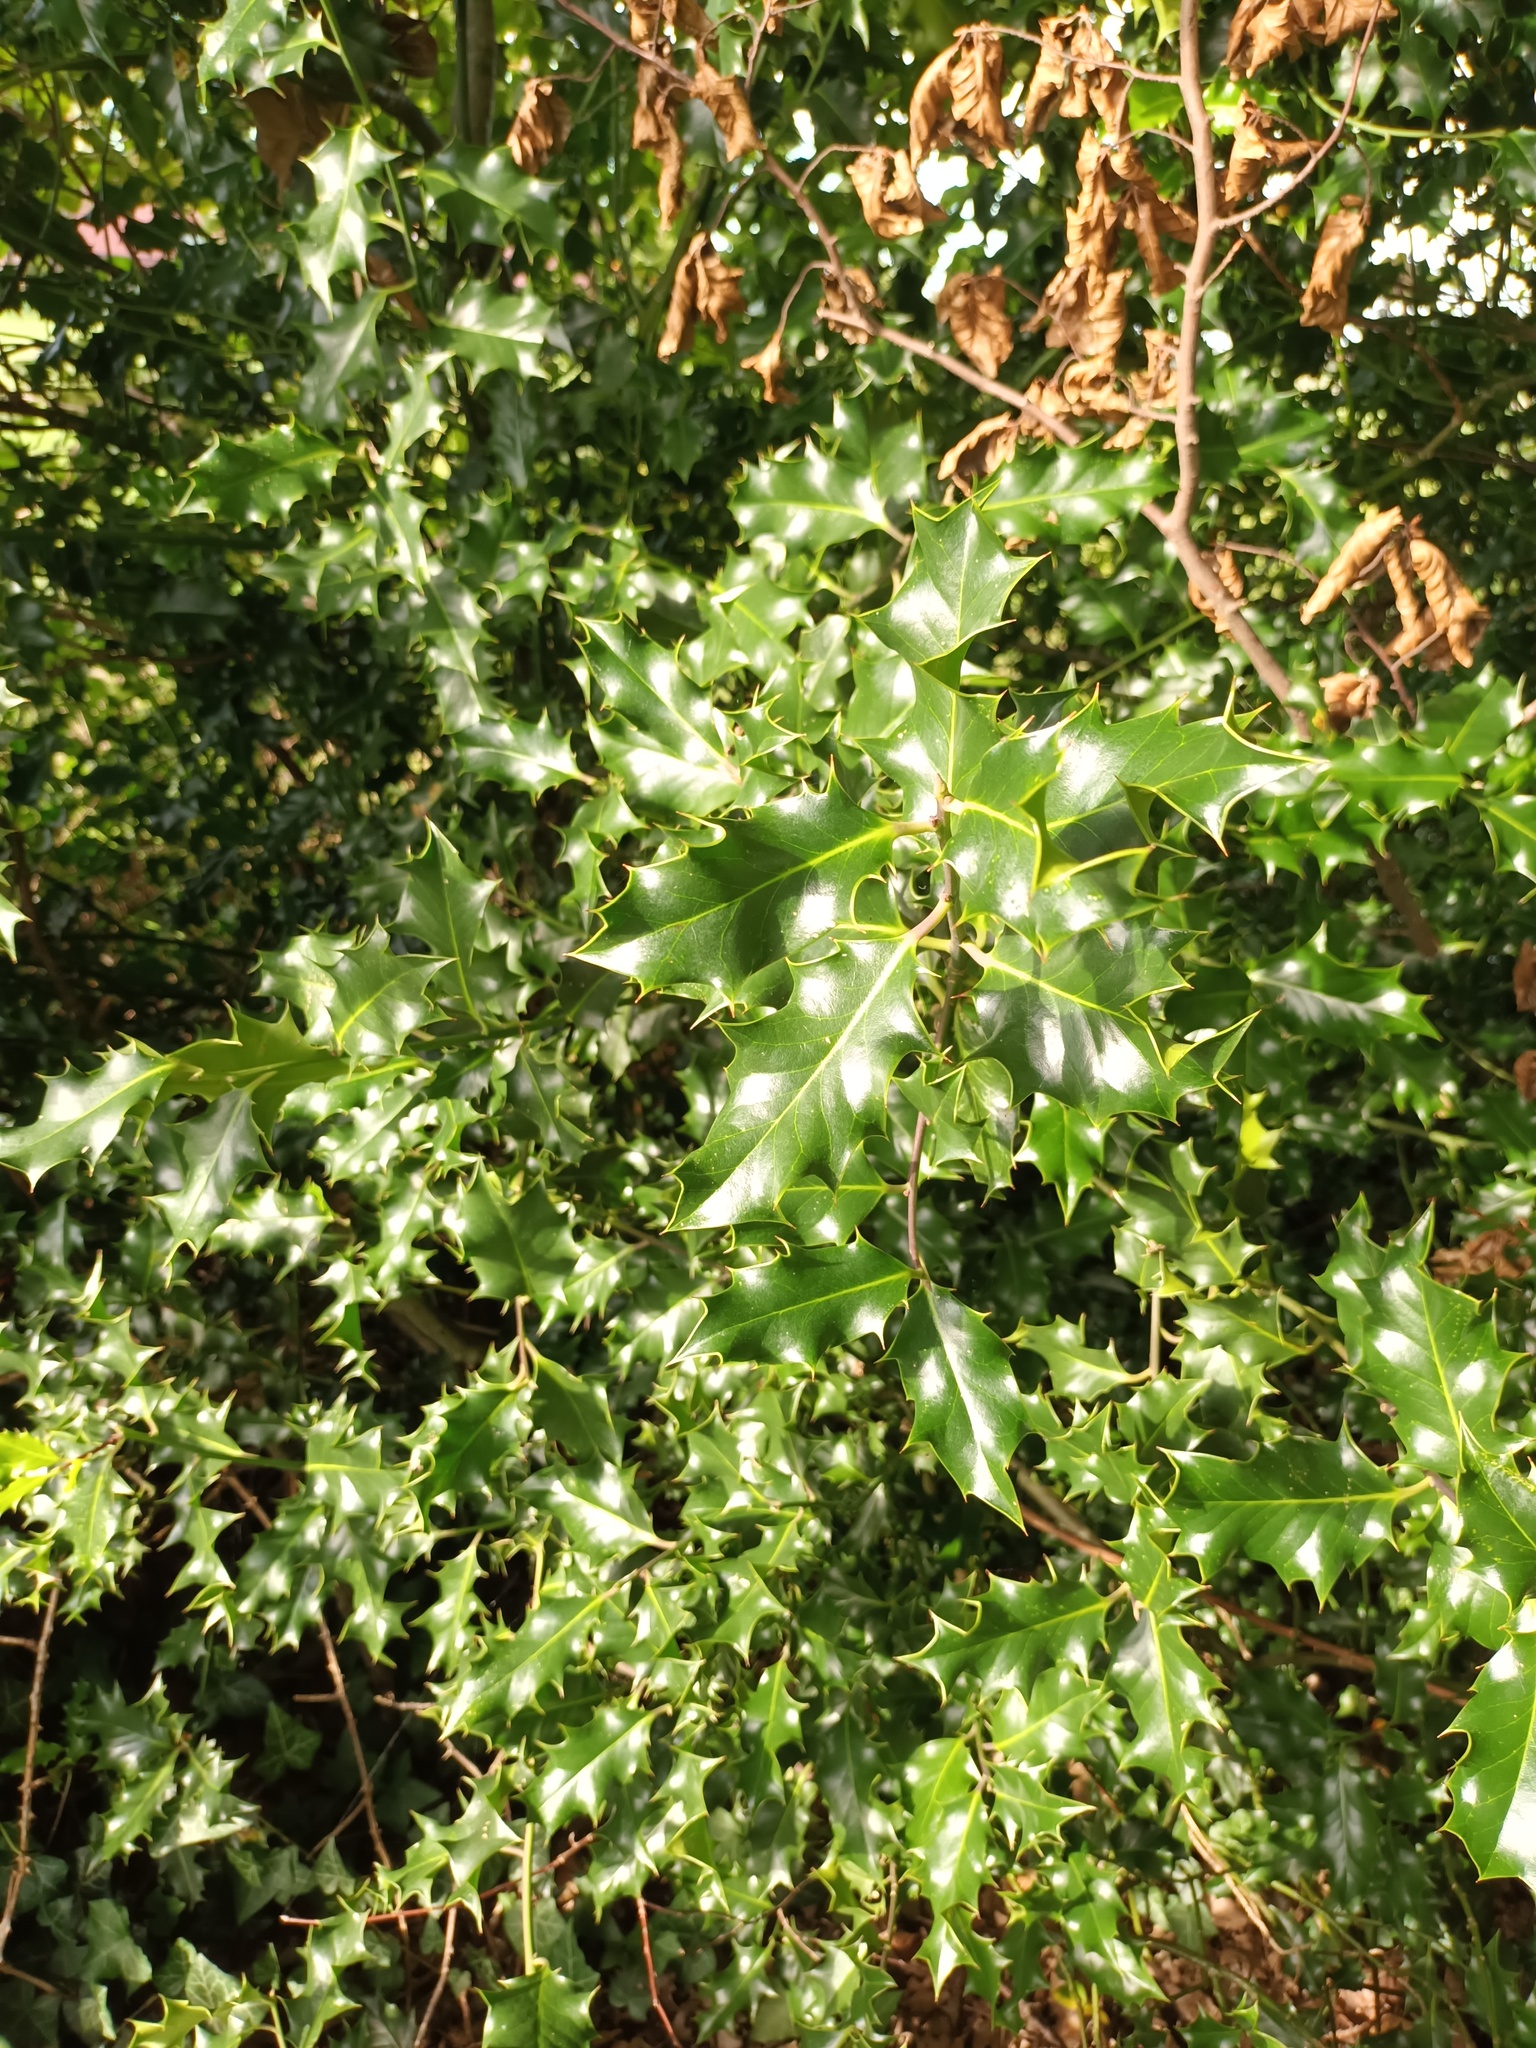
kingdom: Plantae
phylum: Tracheophyta
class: Magnoliopsida
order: Aquifoliales
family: Aquifoliaceae
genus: Ilex
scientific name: Ilex aquifolium
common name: English holly
